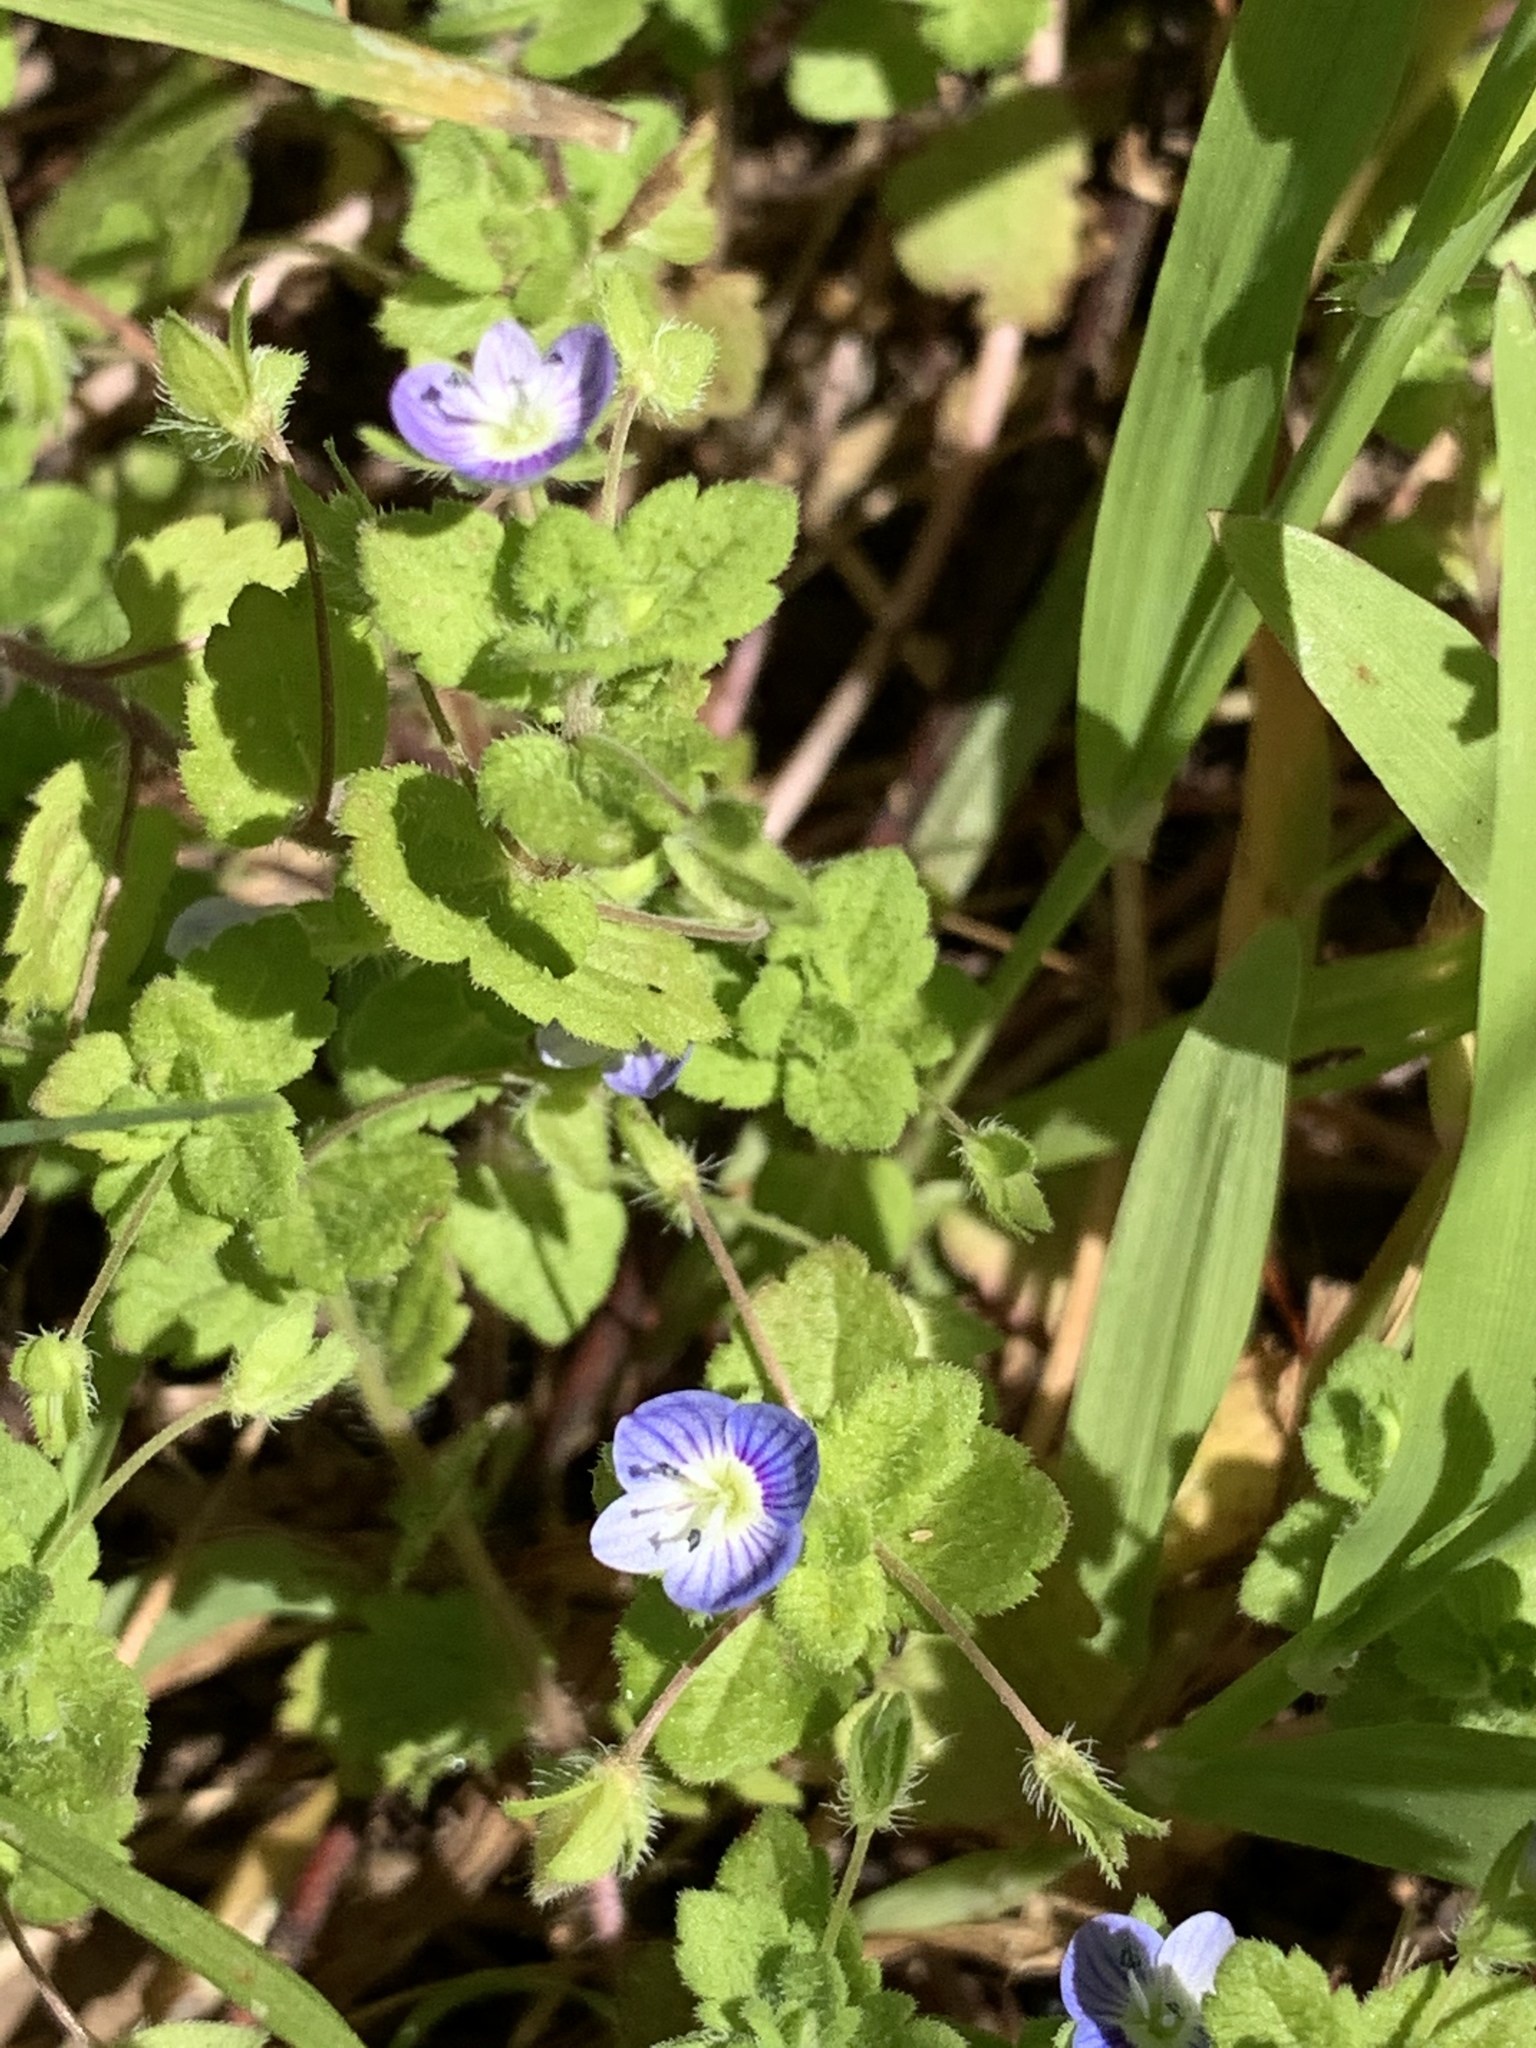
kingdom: Plantae
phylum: Tracheophyta
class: Magnoliopsida
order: Lamiales
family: Plantaginaceae
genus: Veronica
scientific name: Veronica persica
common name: Common field-speedwell
